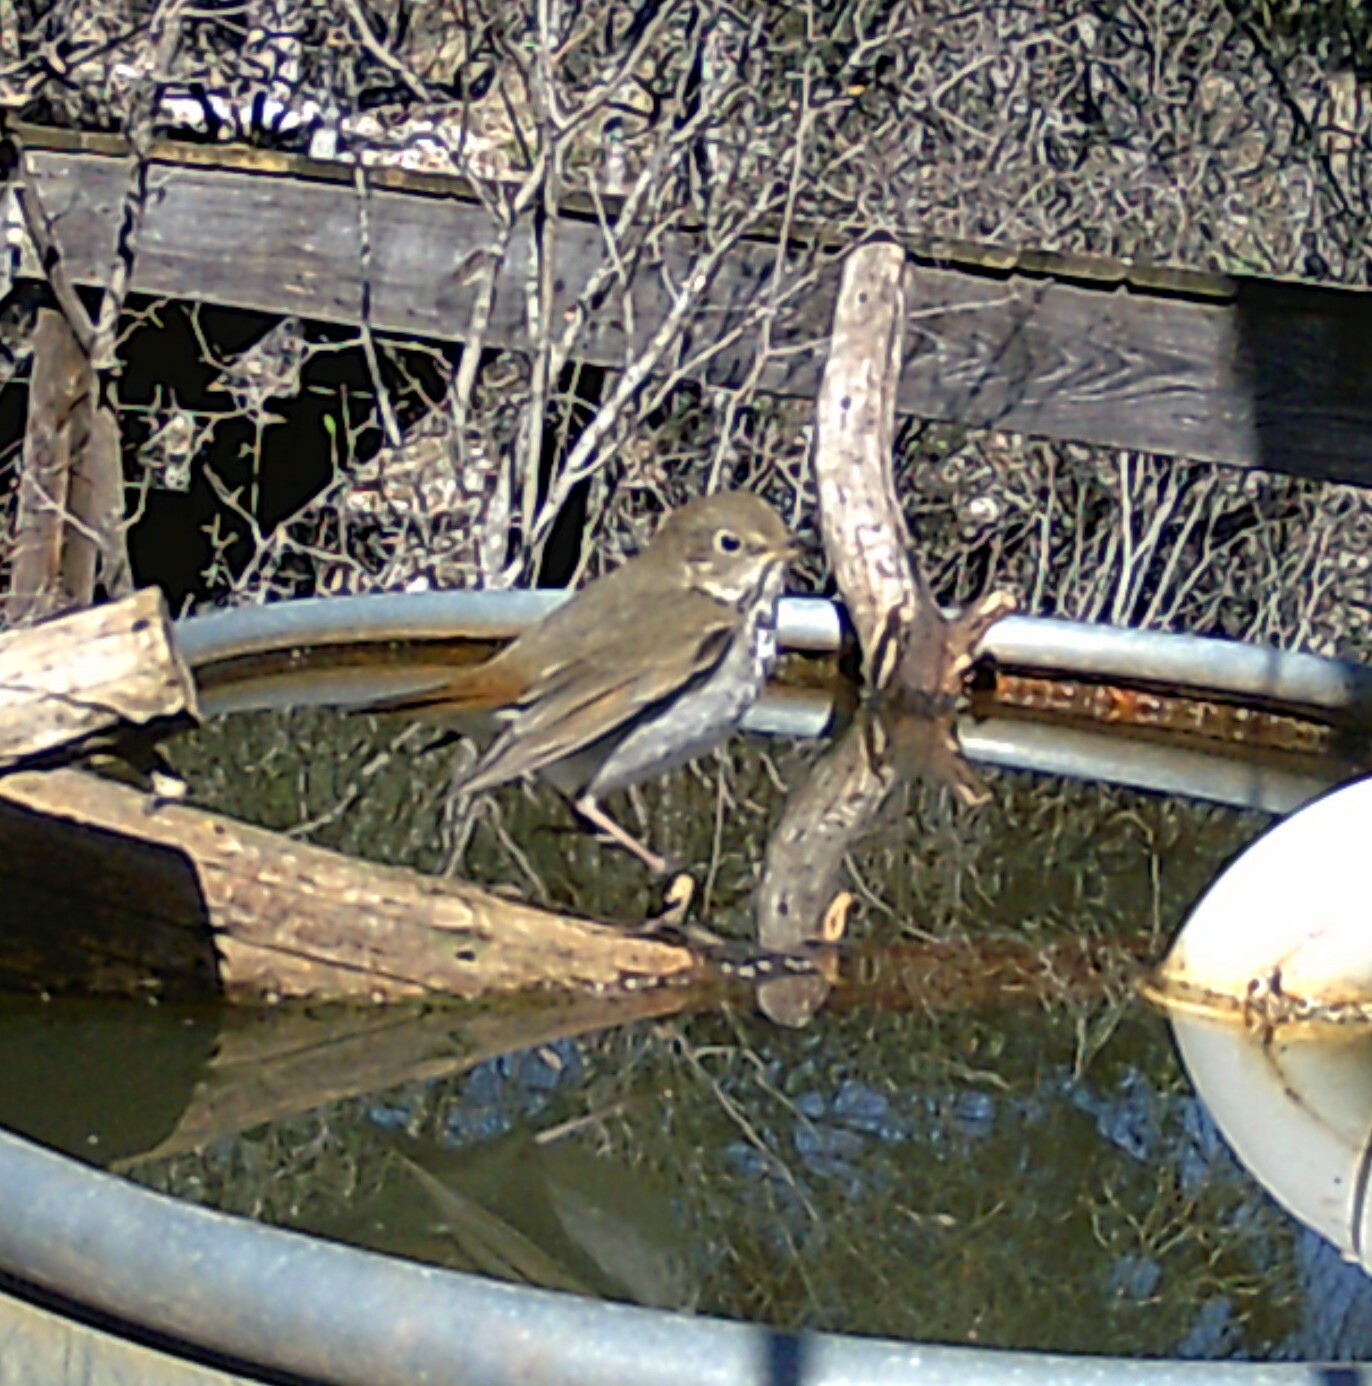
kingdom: Animalia
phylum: Chordata
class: Aves
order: Passeriformes
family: Turdidae
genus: Catharus
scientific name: Catharus guttatus
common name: Hermit thrush
